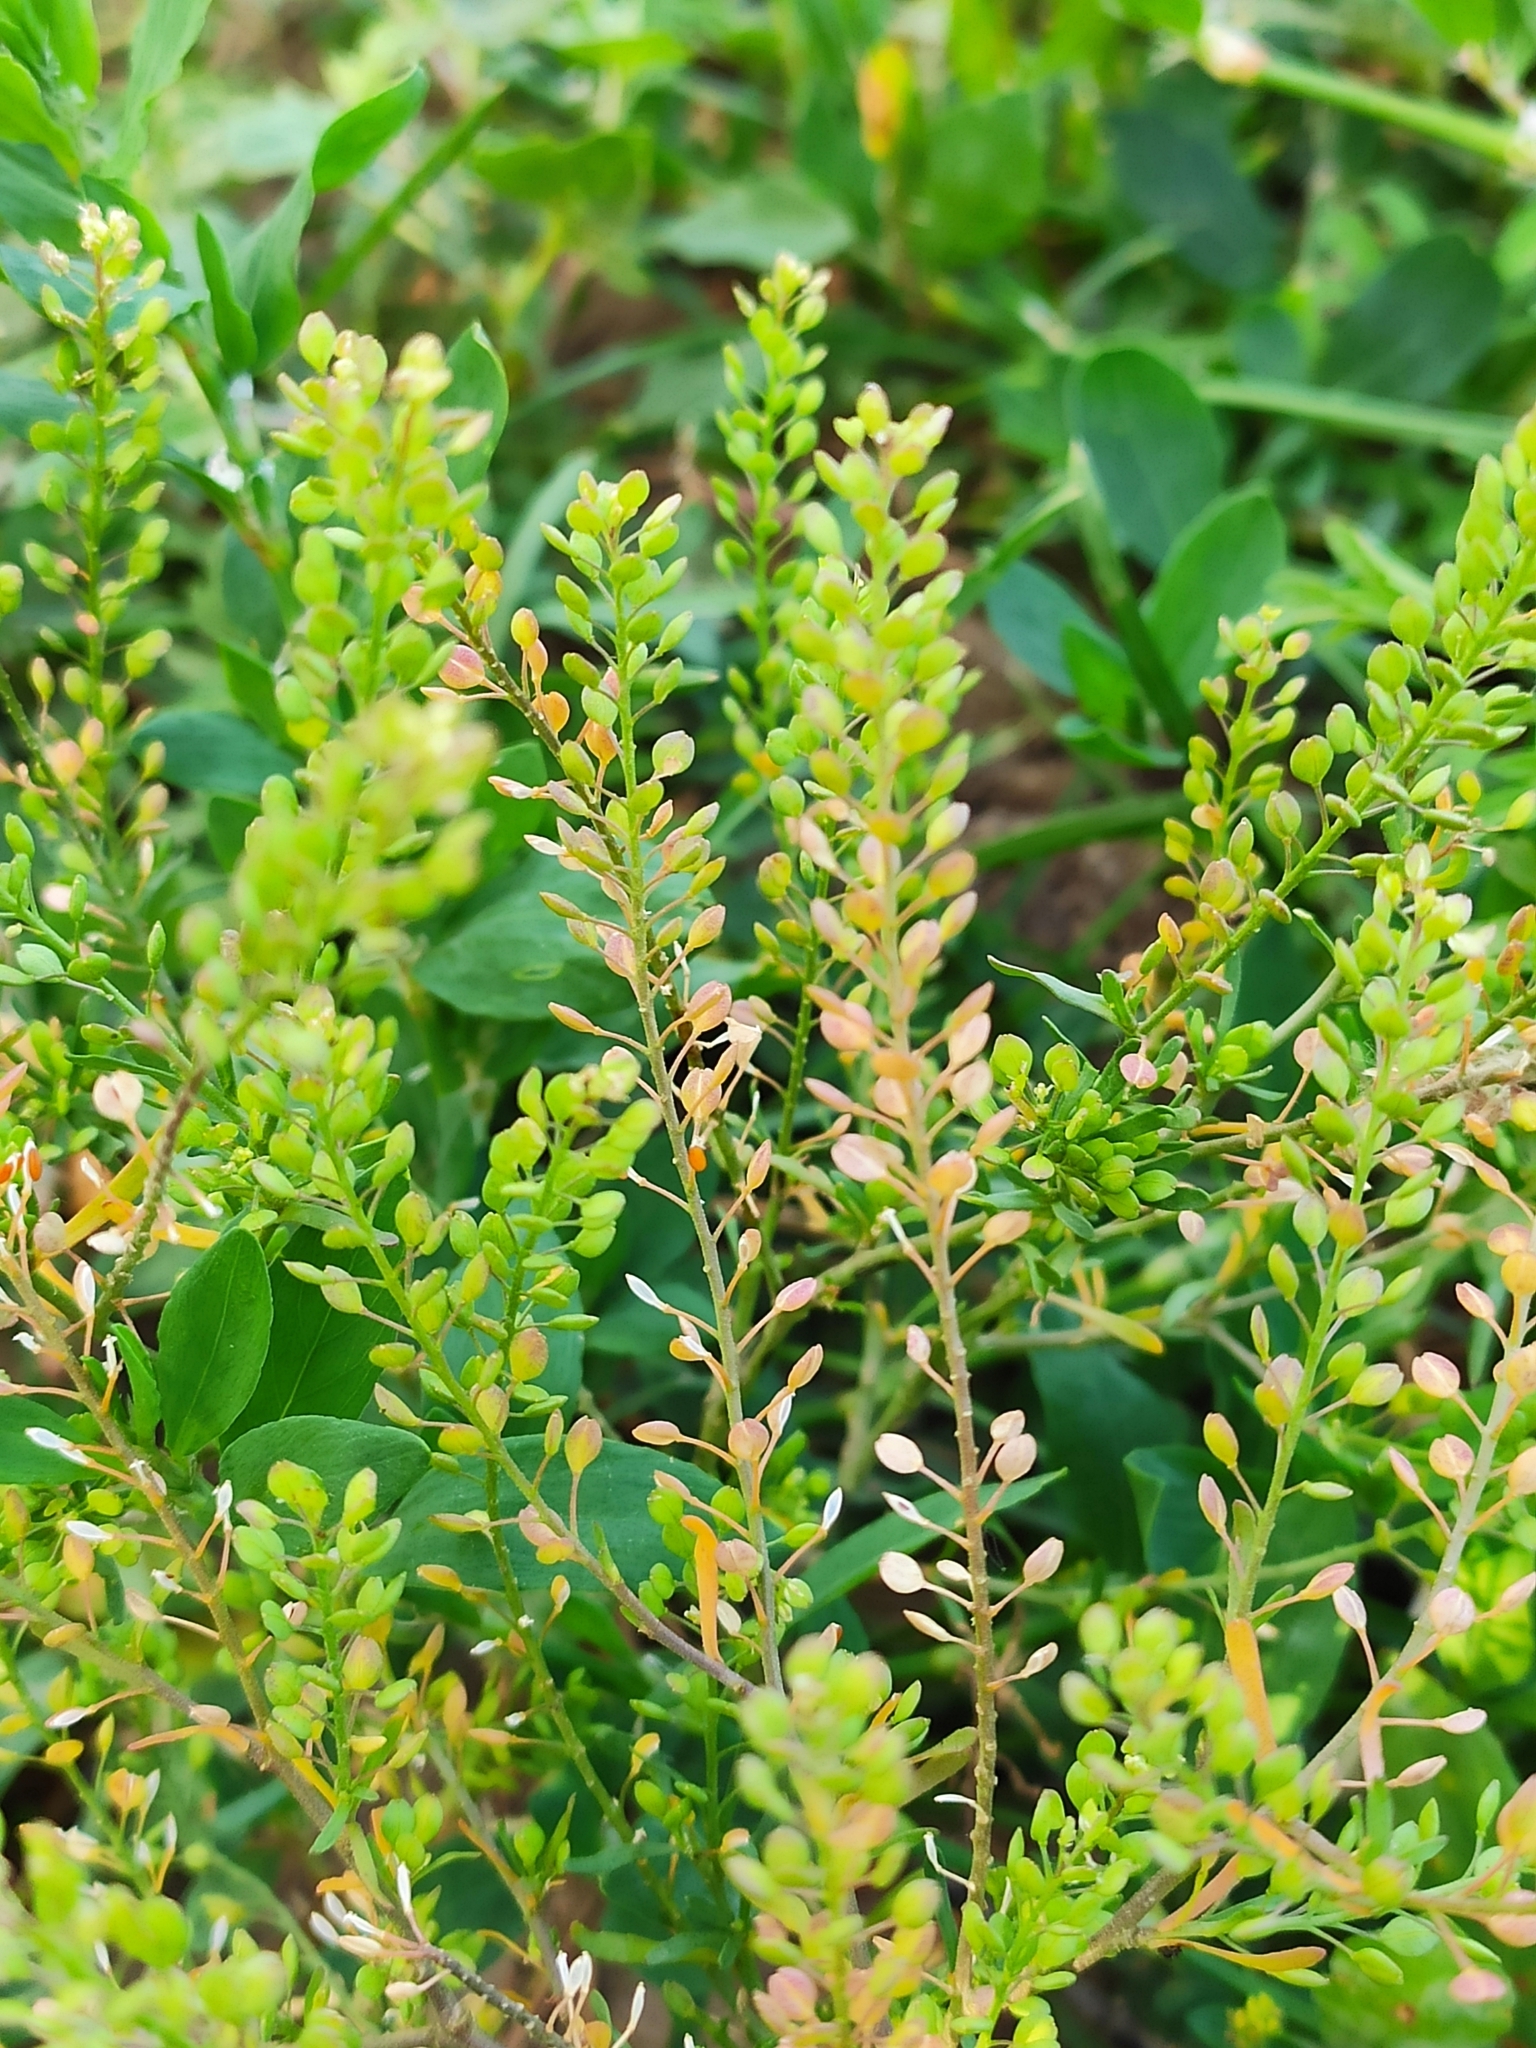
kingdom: Plantae
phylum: Tracheophyta
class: Magnoliopsida
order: Brassicales
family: Brassicaceae
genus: Lepidium
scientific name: Lepidium ruderale
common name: Narrow-leaved pepperwort
